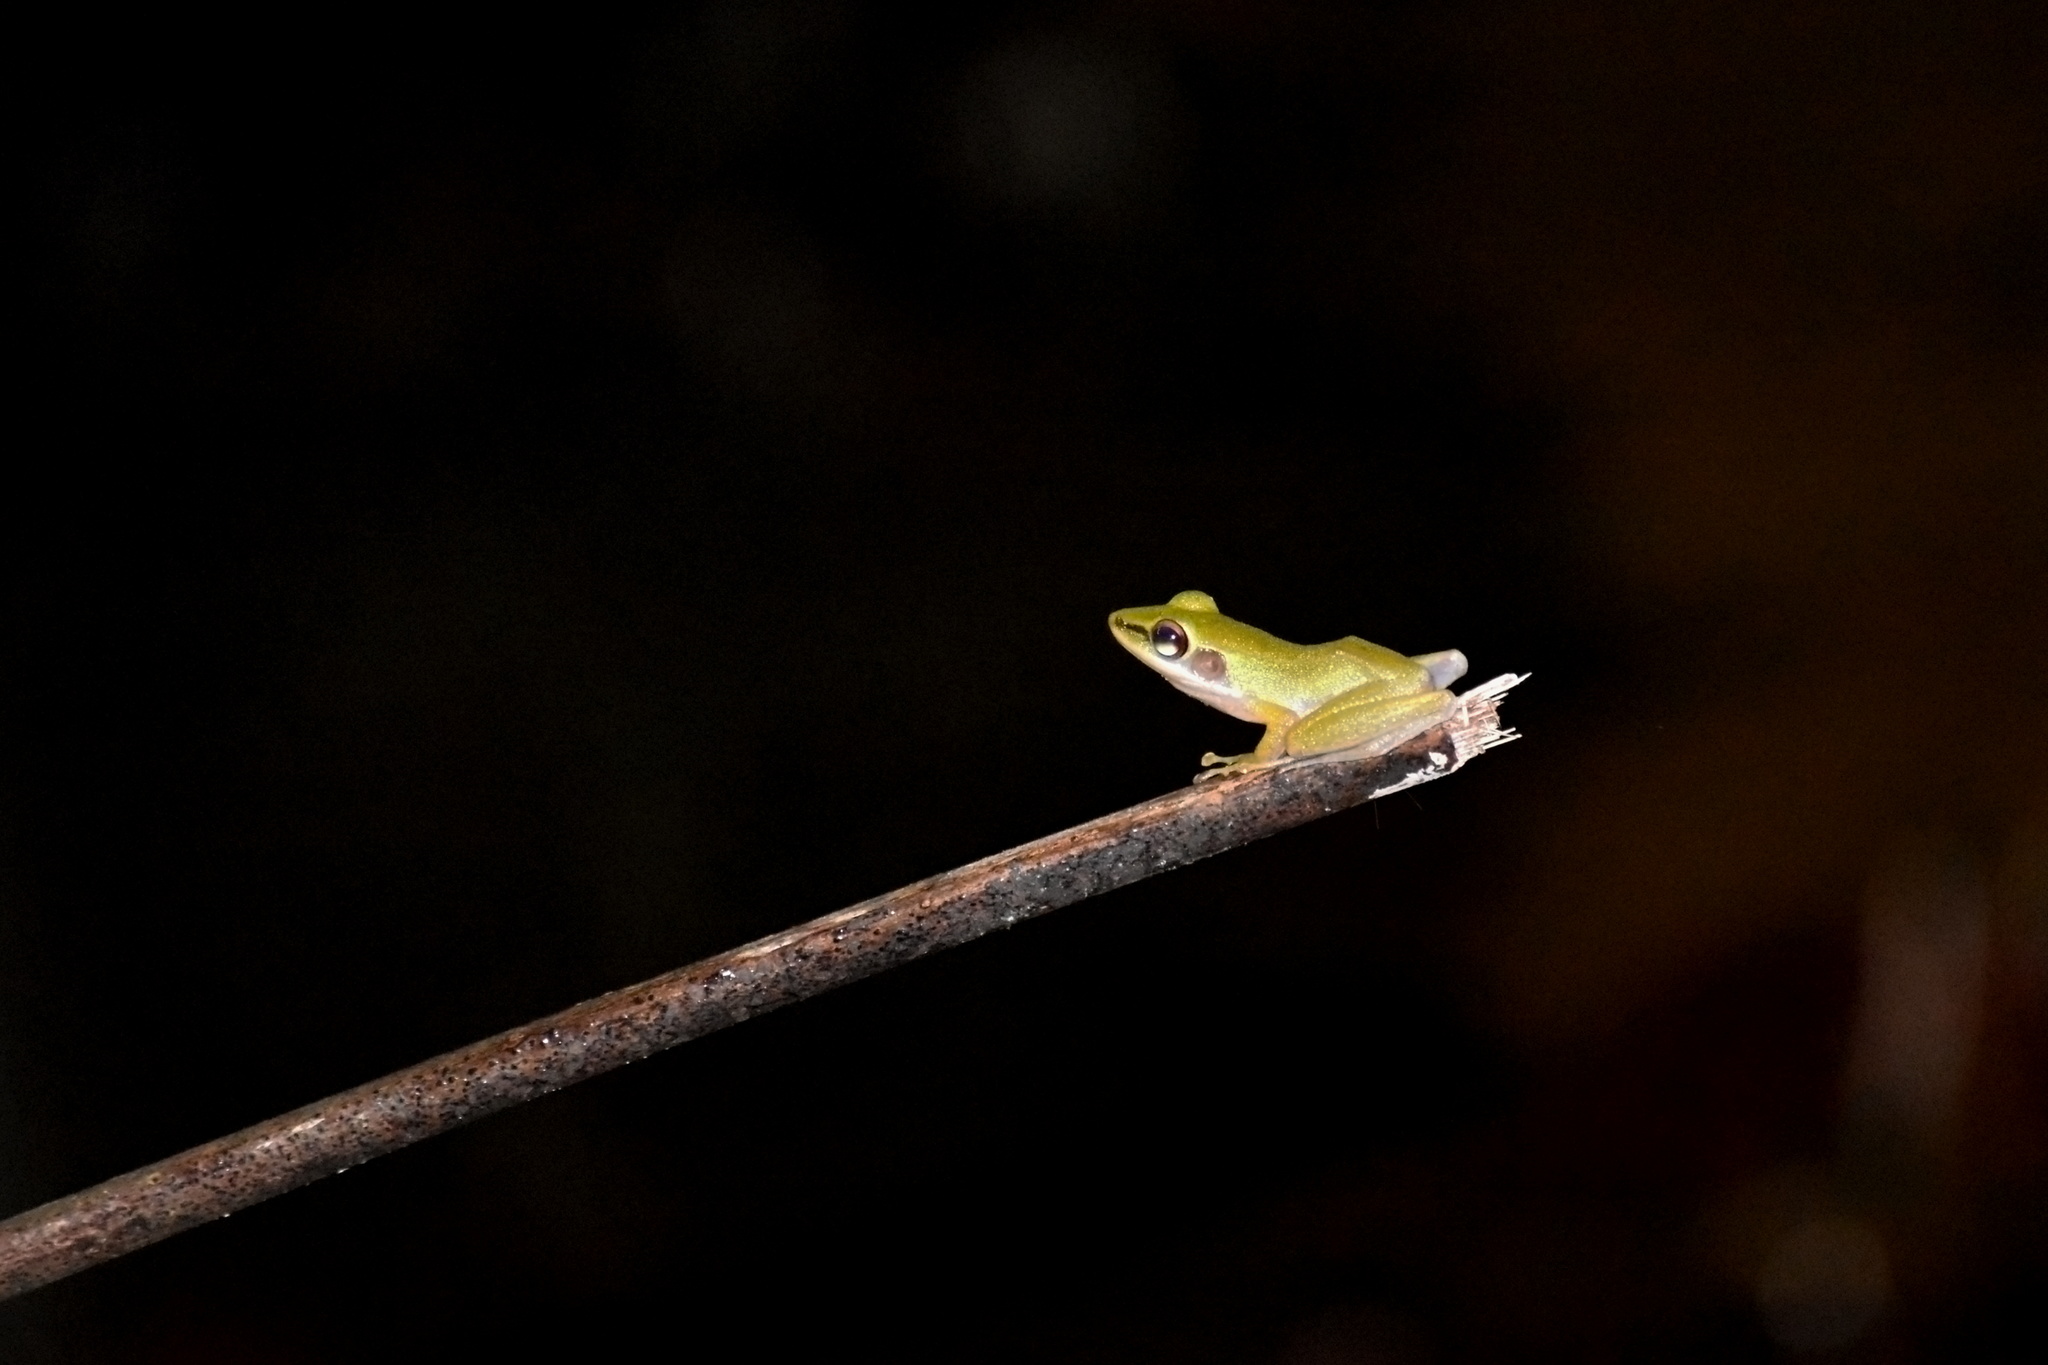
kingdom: Animalia
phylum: Chordata
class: Amphibia
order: Anura
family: Ranidae
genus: Chalcorana
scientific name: Chalcorana raniceps
